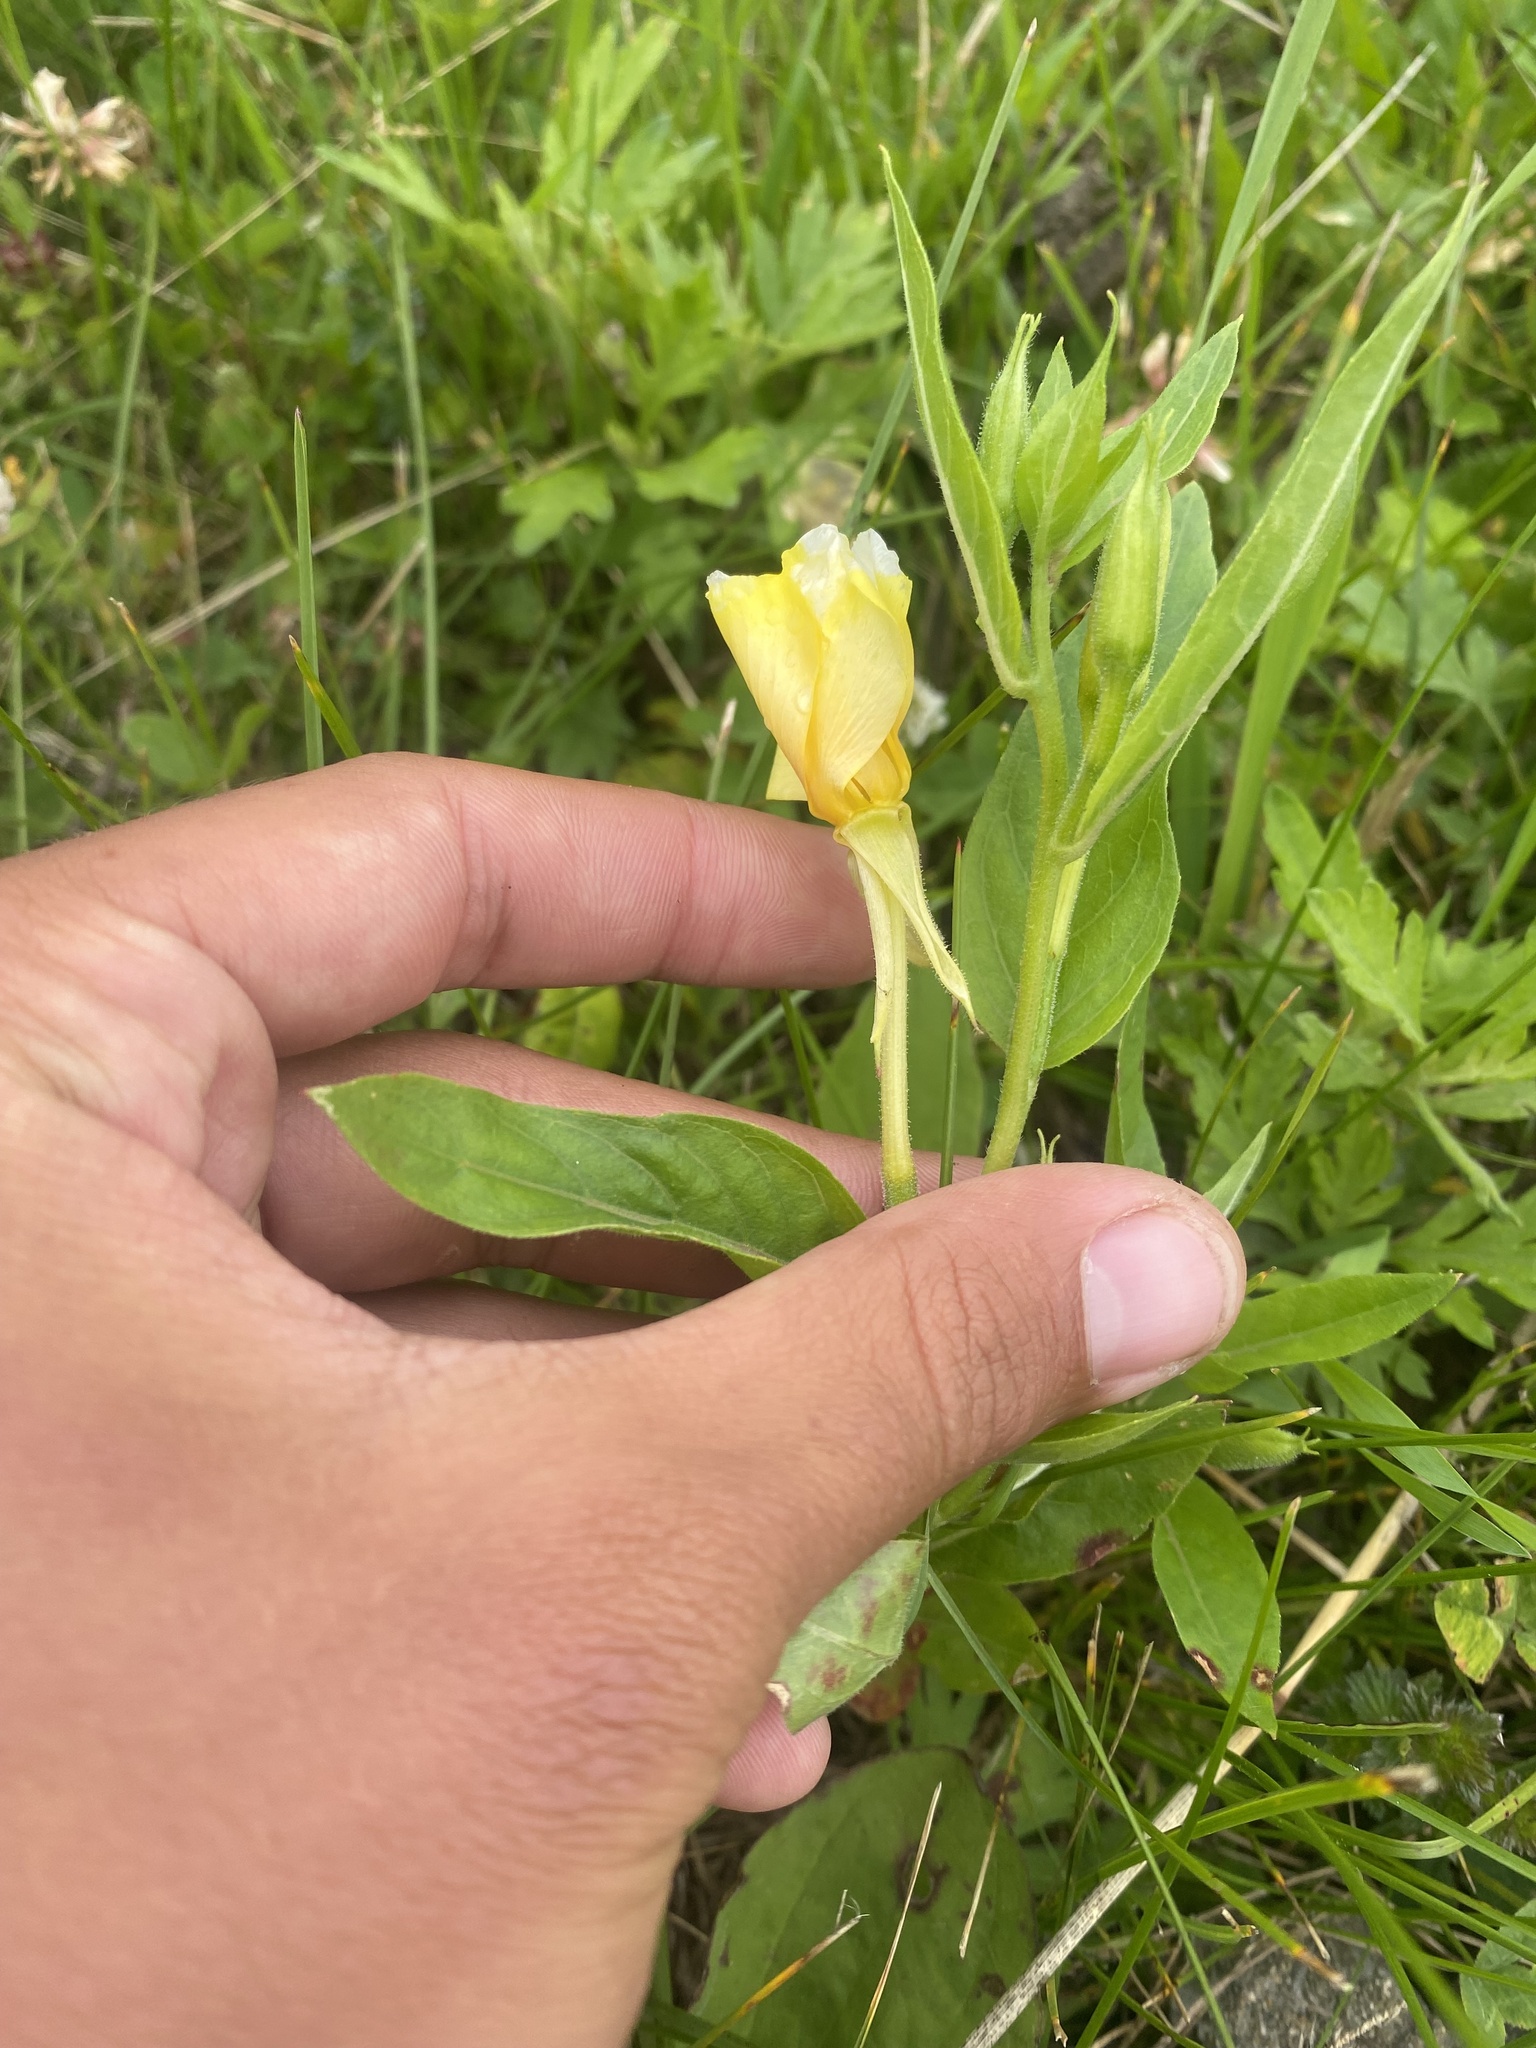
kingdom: Plantae
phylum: Tracheophyta
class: Magnoliopsida
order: Myrtales
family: Onagraceae
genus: Oenothera
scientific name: Oenothera biennis
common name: Common evening-primrose
